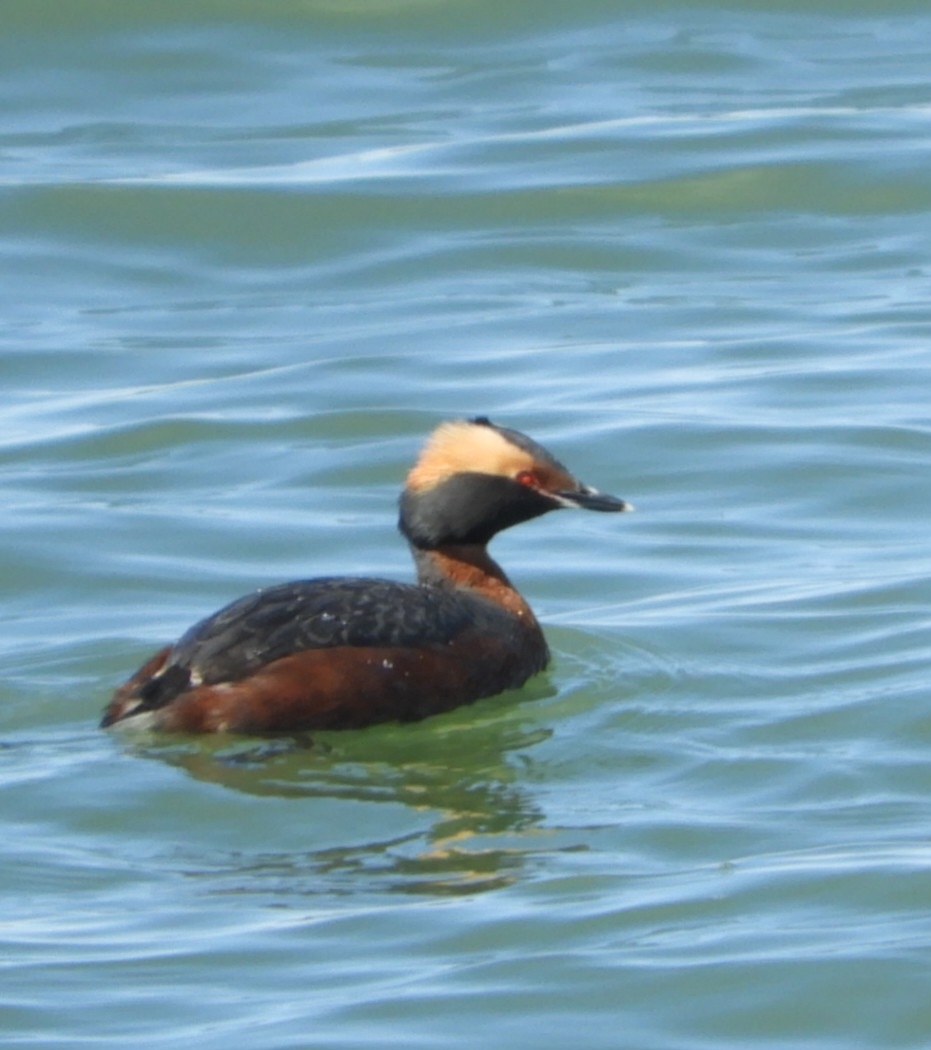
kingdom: Animalia
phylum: Chordata
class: Aves
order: Podicipediformes
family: Podicipedidae
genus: Podiceps
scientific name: Podiceps auritus
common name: Horned grebe
